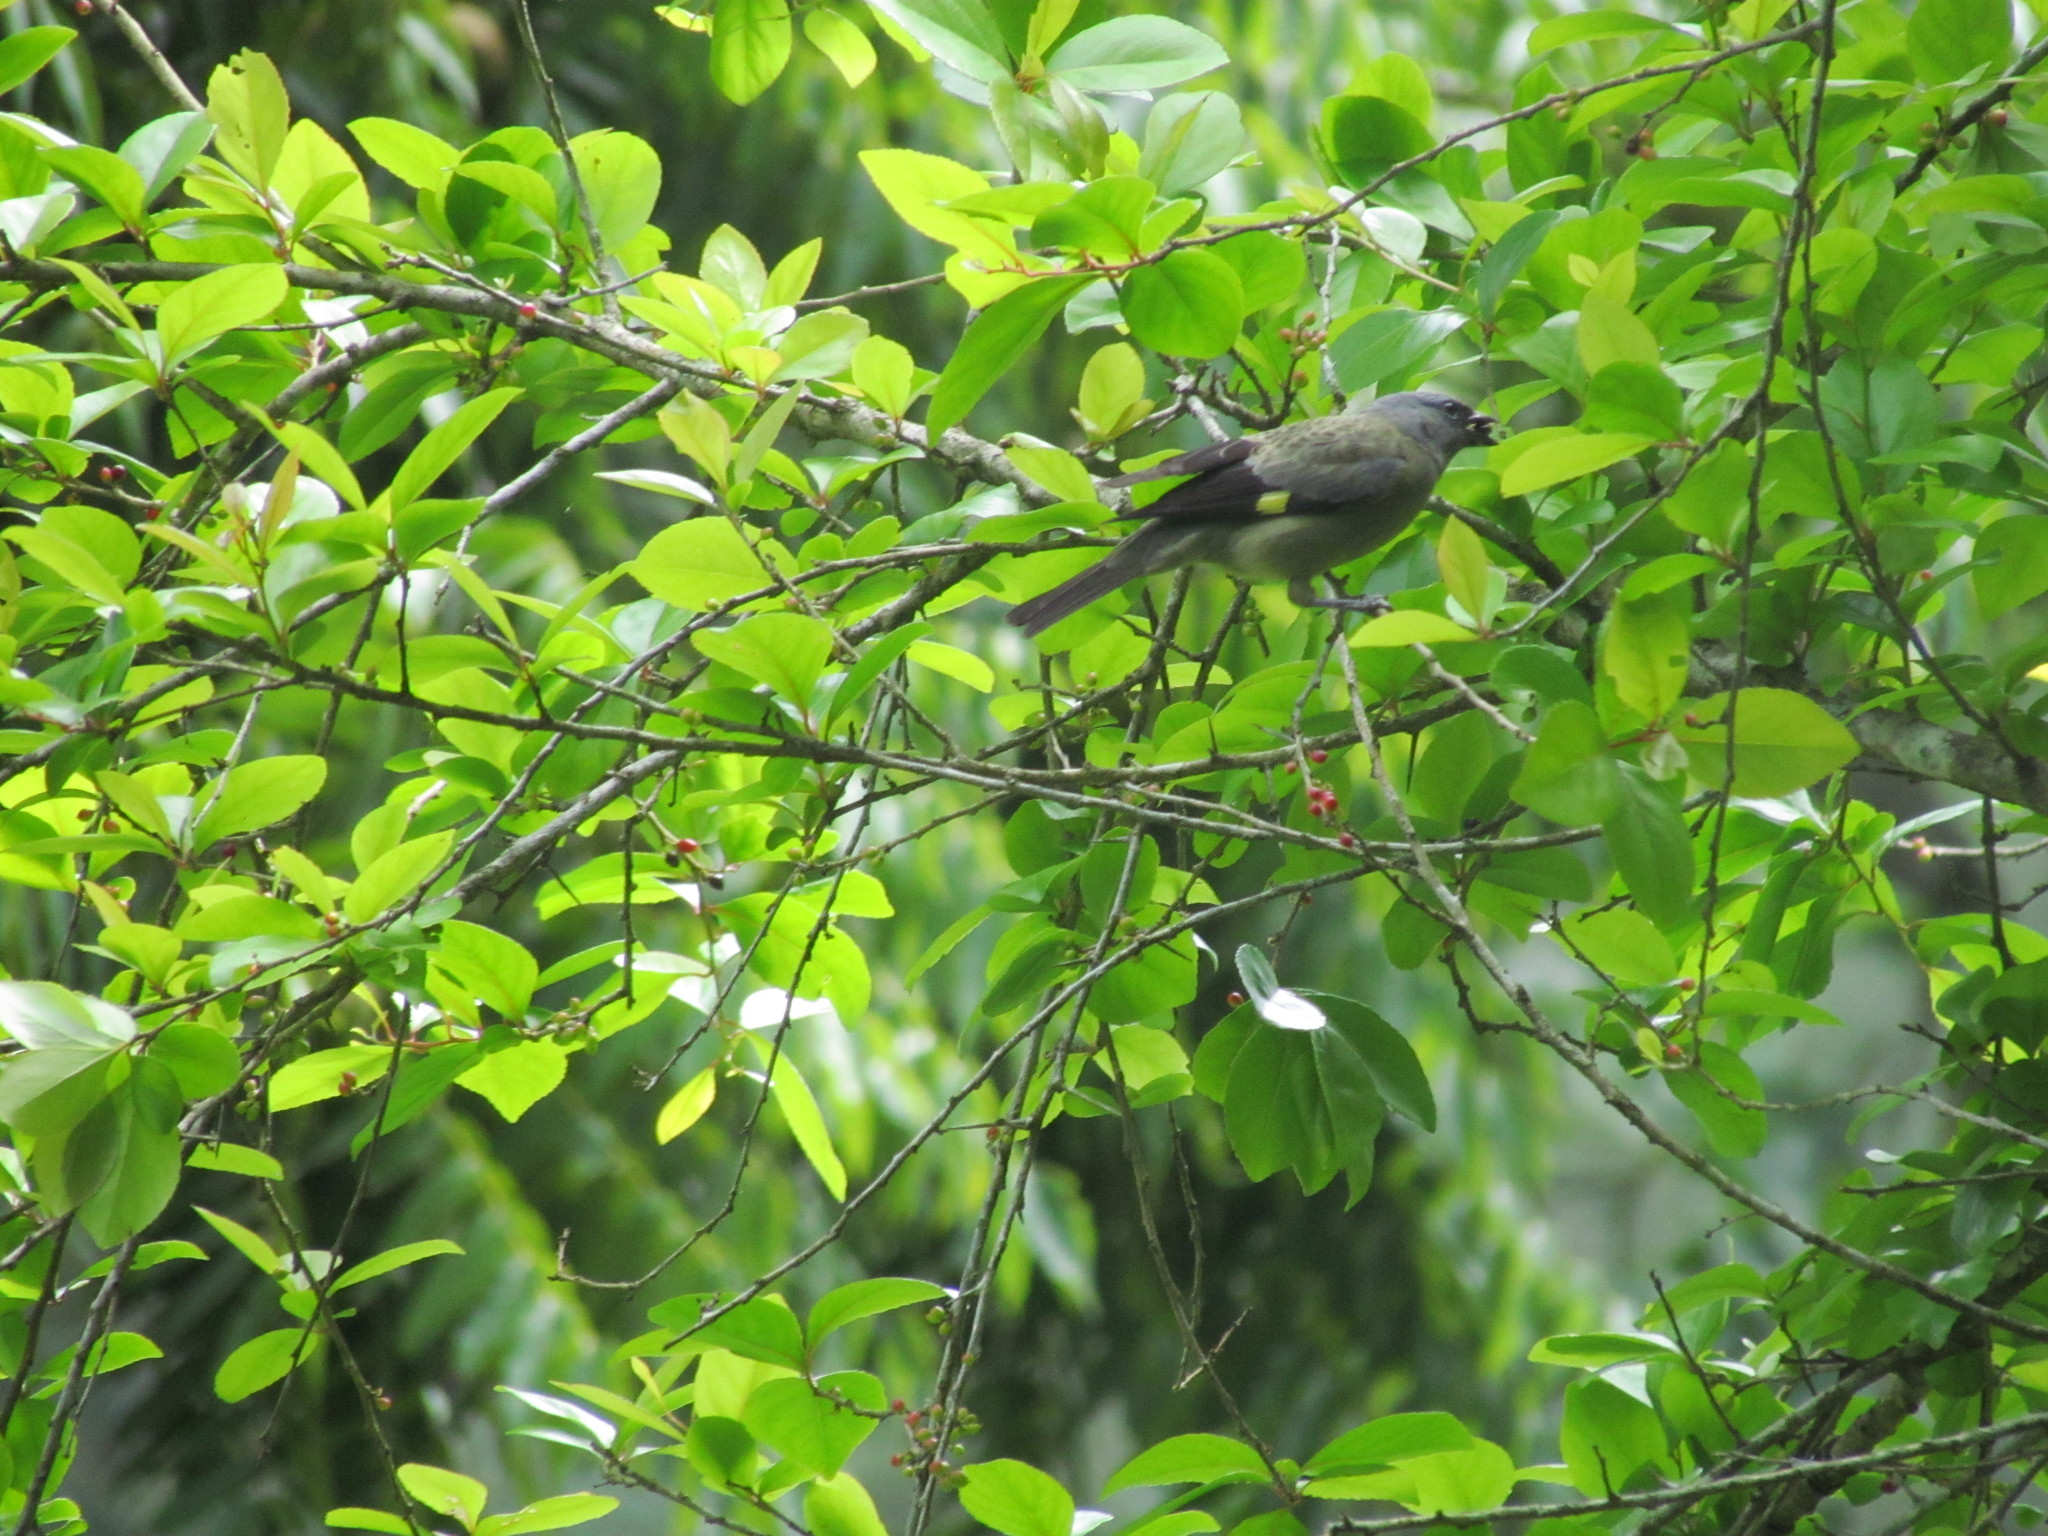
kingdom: Animalia
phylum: Chordata
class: Aves
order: Passeriformes
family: Thraupidae
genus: Thraupis
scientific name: Thraupis abbas
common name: Yellow-winged tanager
